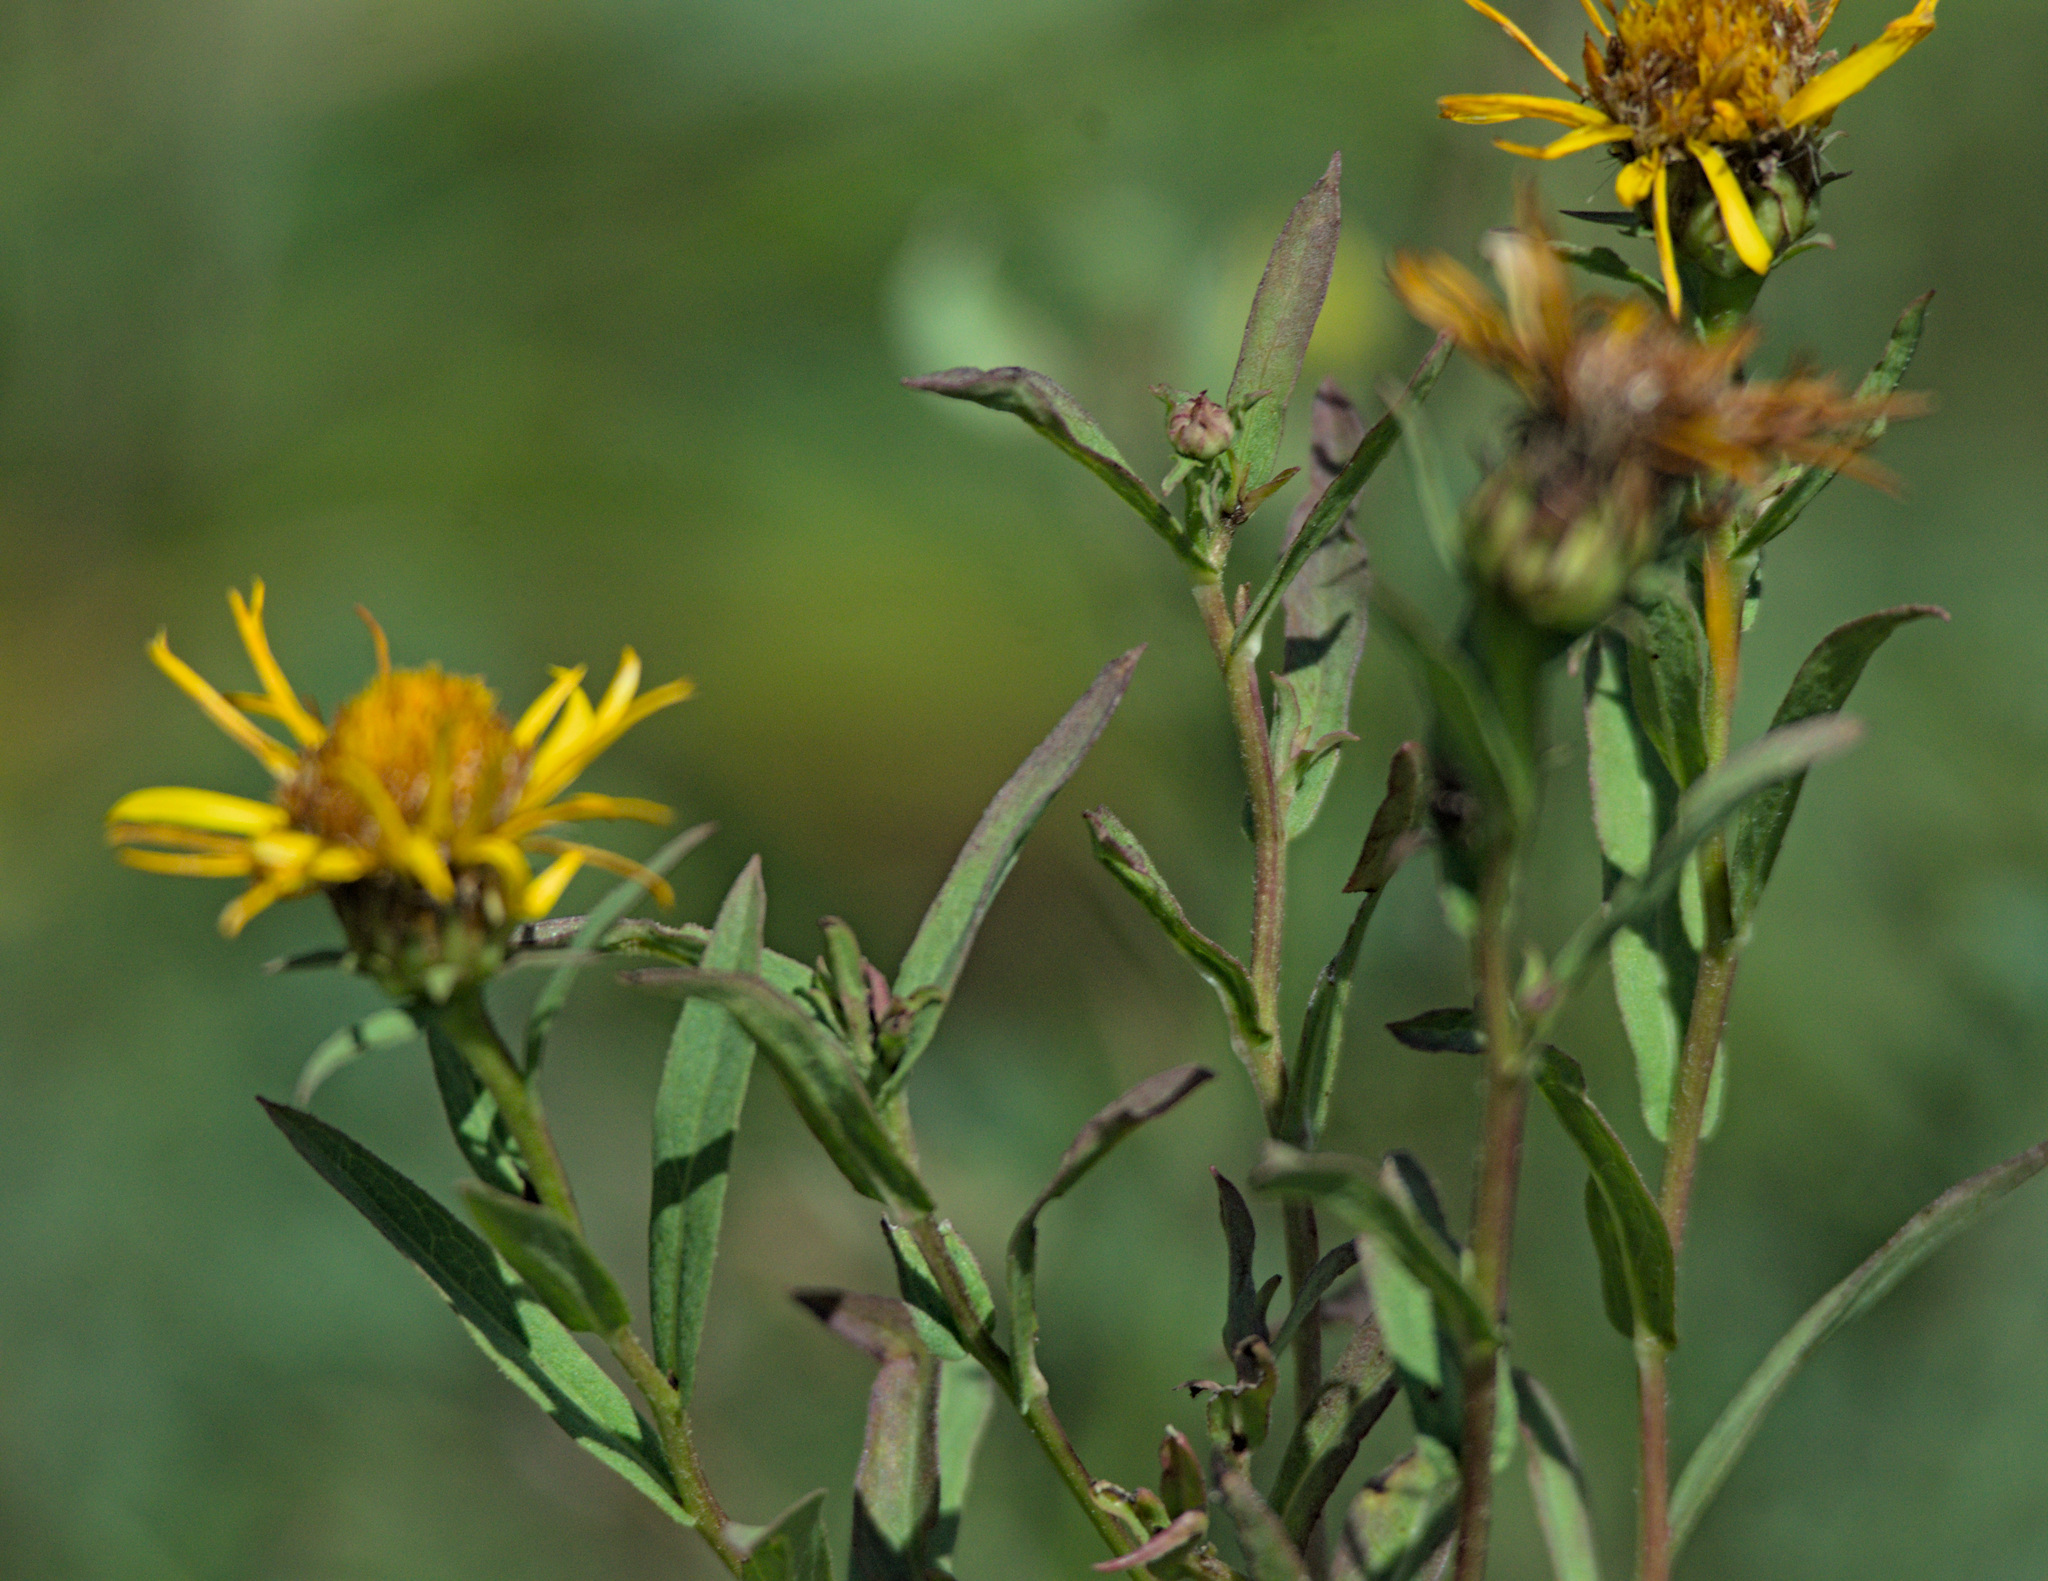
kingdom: Plantae
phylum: Tracheophyta
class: Magnoliopsida
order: Asterales
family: Asteraceae
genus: Pentanema
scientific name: Pentanema salicinum
